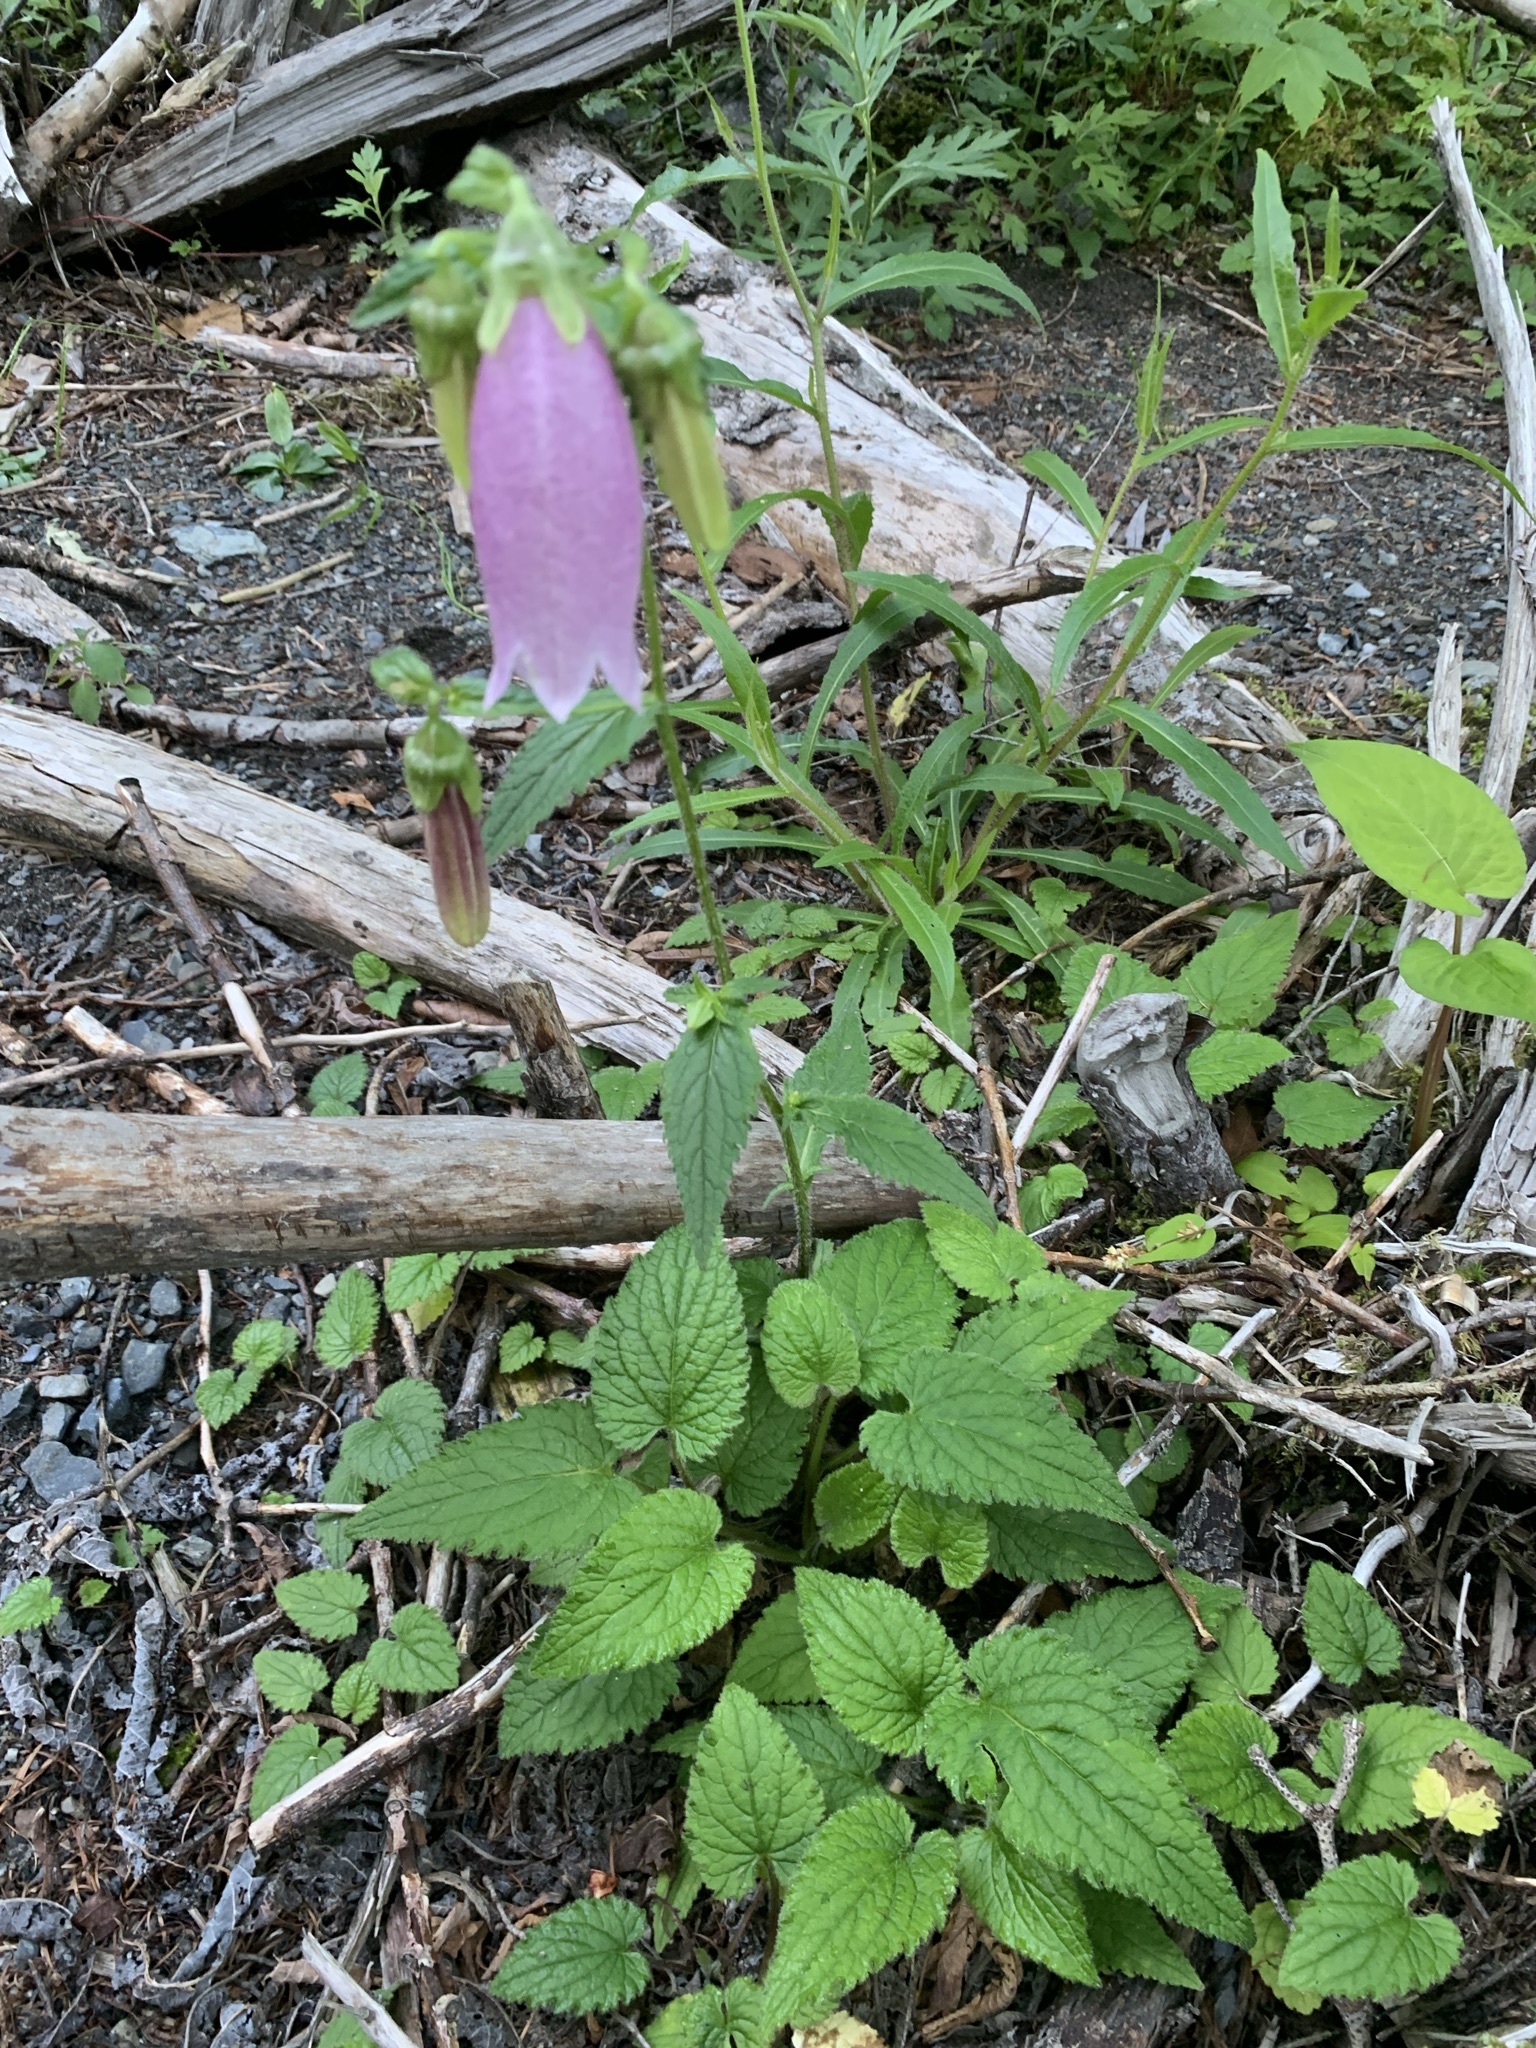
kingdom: Plantae
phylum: Tracheophyta
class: Magnoliopsida
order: Asterales
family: Campanulaceae
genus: Campanula
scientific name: Campanula punctata
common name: Spotted bellflower
